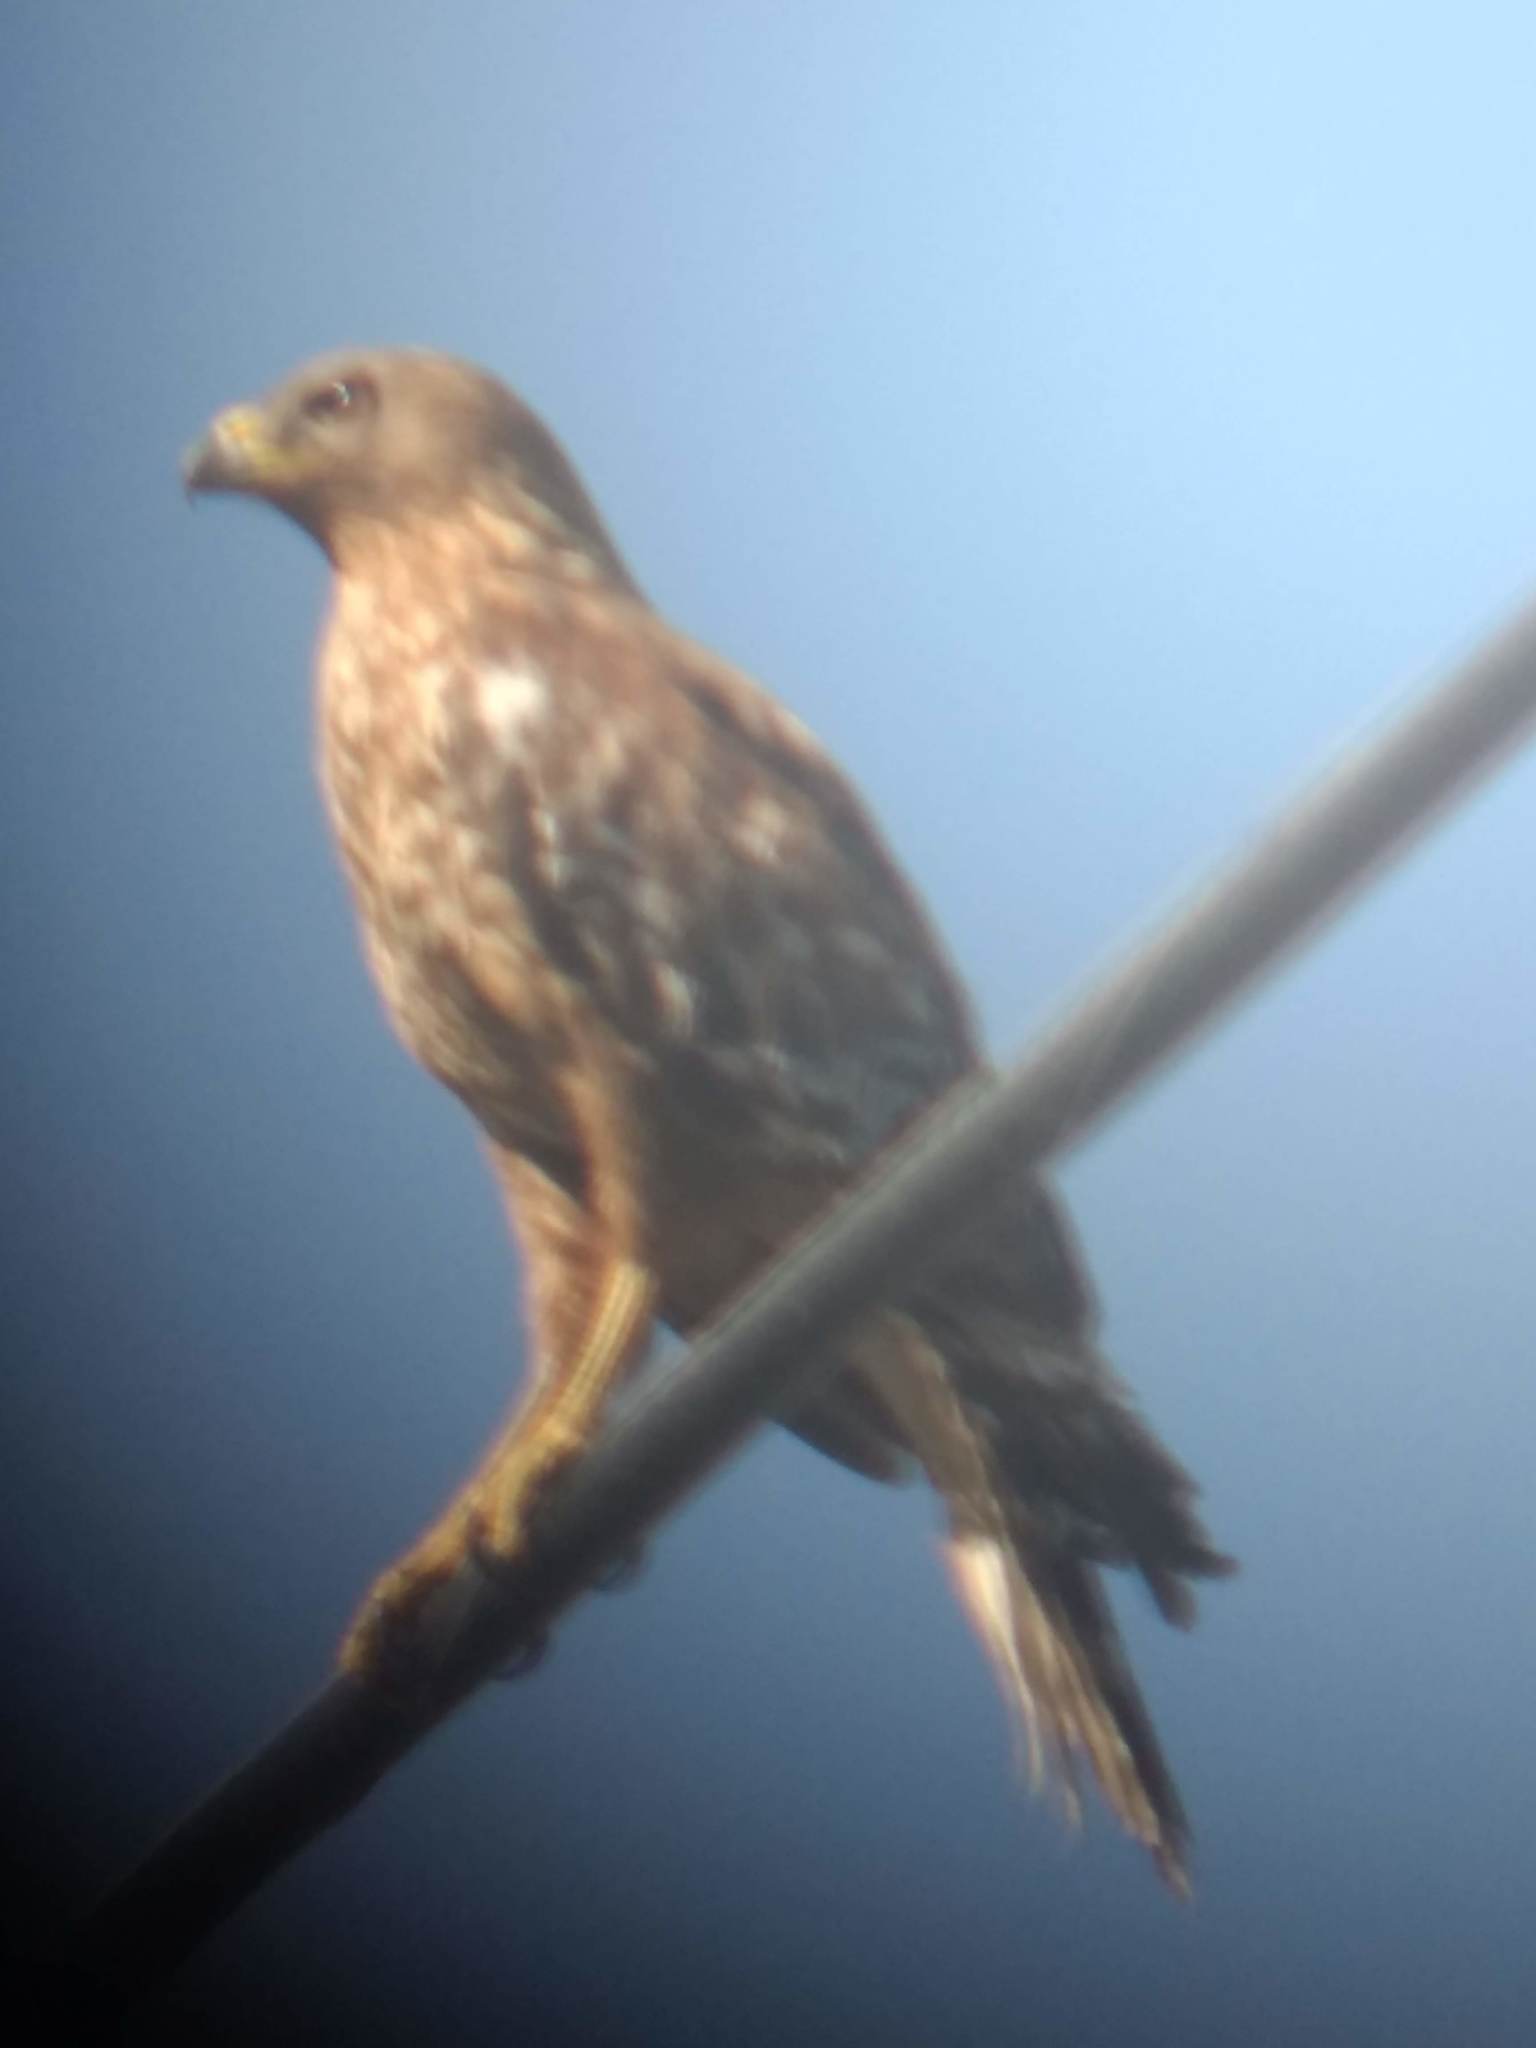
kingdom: Animalia
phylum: Chordata
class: Aves
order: Accipitriformes
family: Accipitridae
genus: Buteo
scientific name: Buteo lineatus
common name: Red-shouldered hawk
